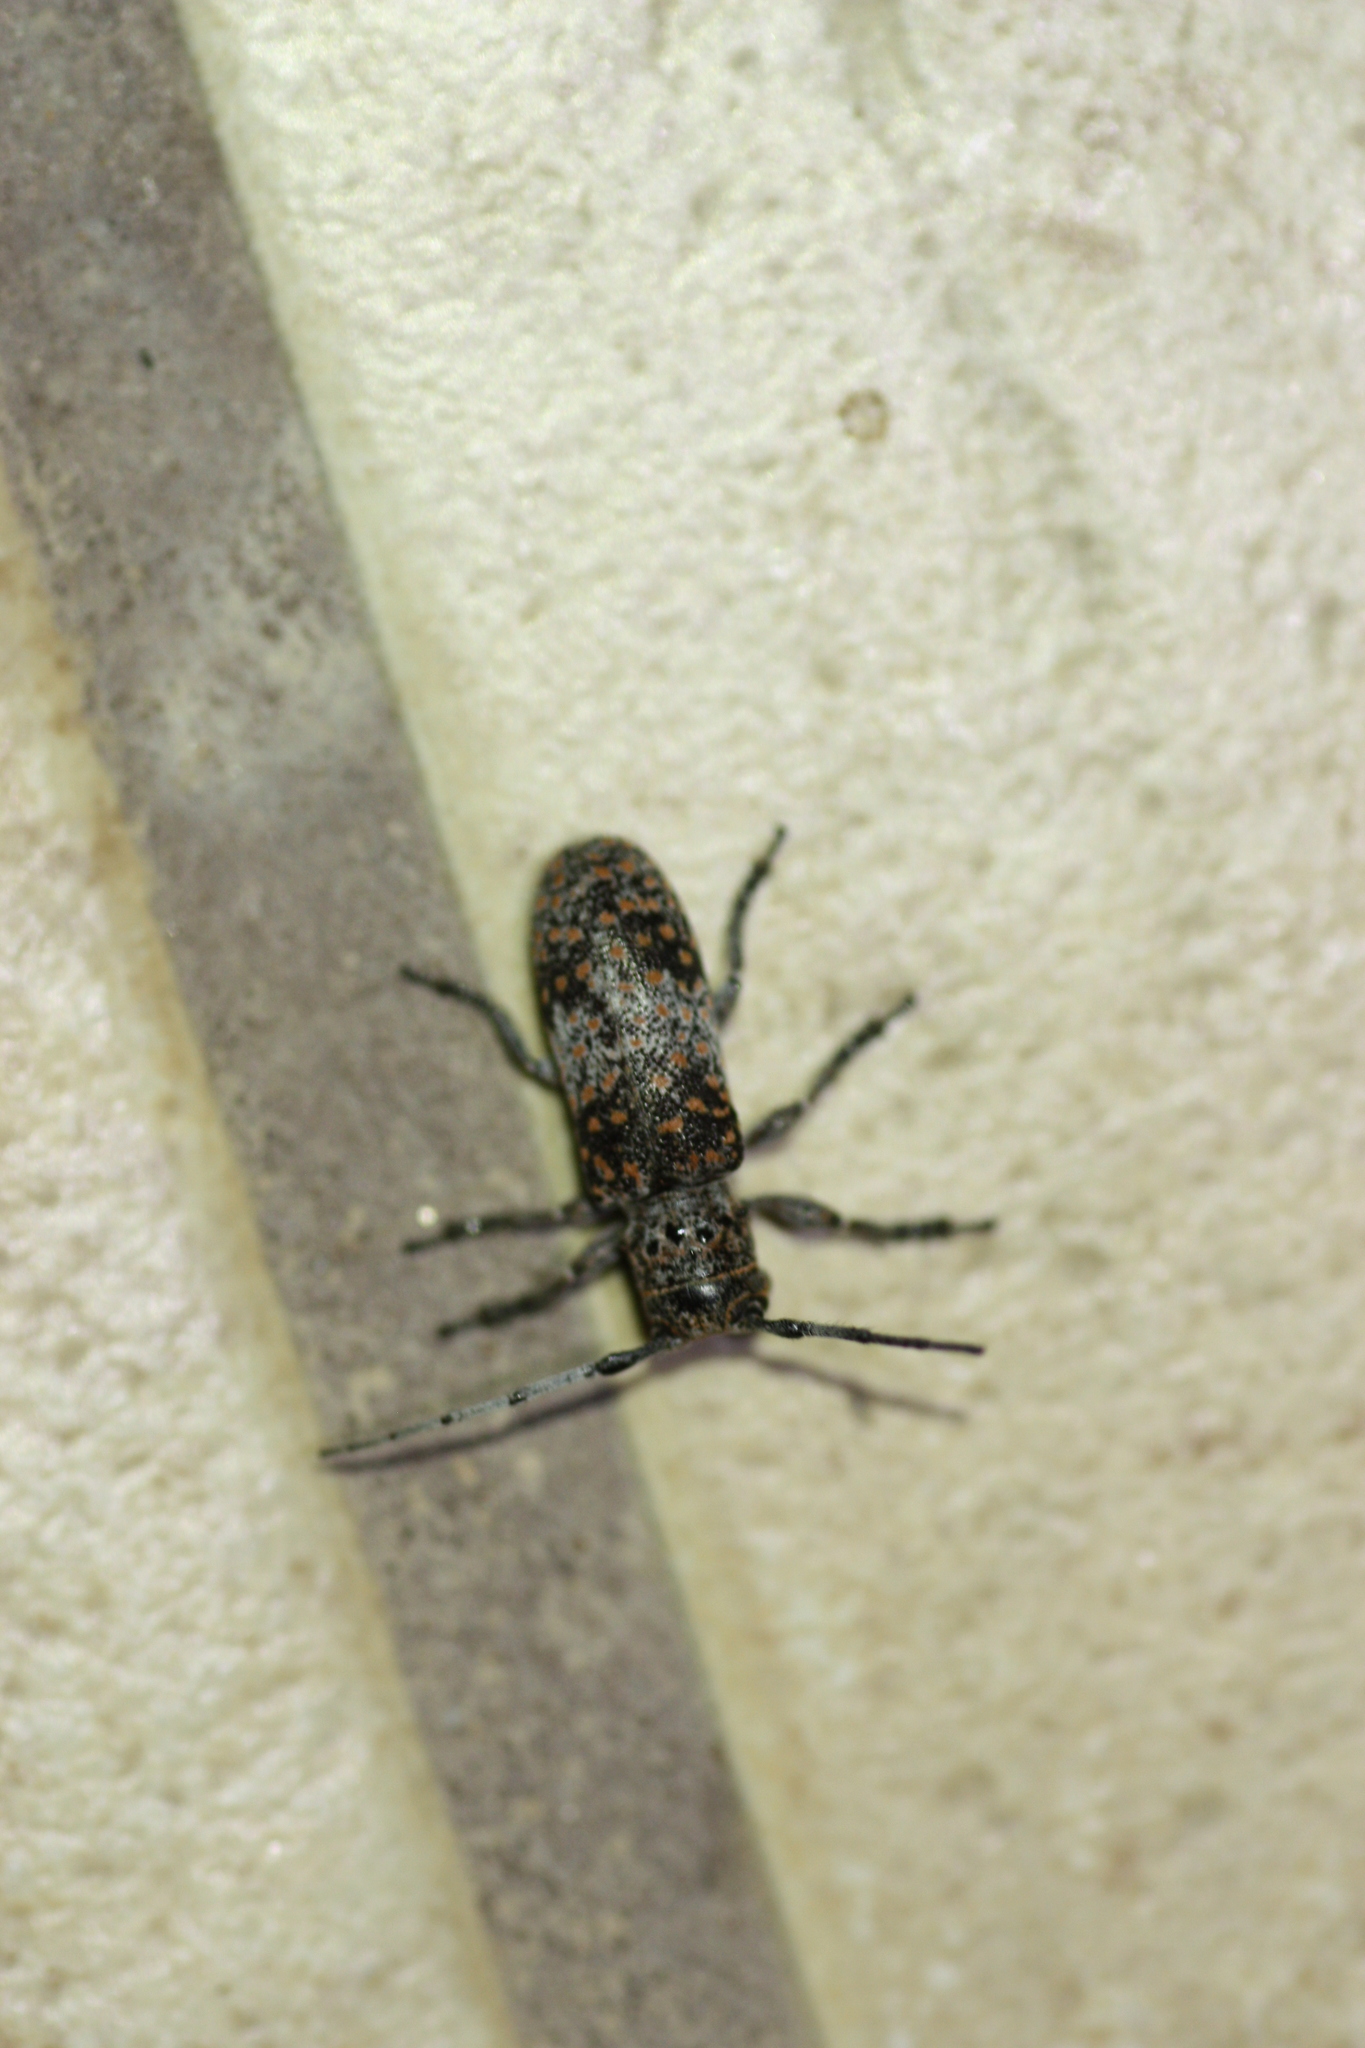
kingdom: Animalia
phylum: Arthropoda
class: Insecta
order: Coleoptera
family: Cerambycidae
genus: Oncideres
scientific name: Oncideres rhodosticta
